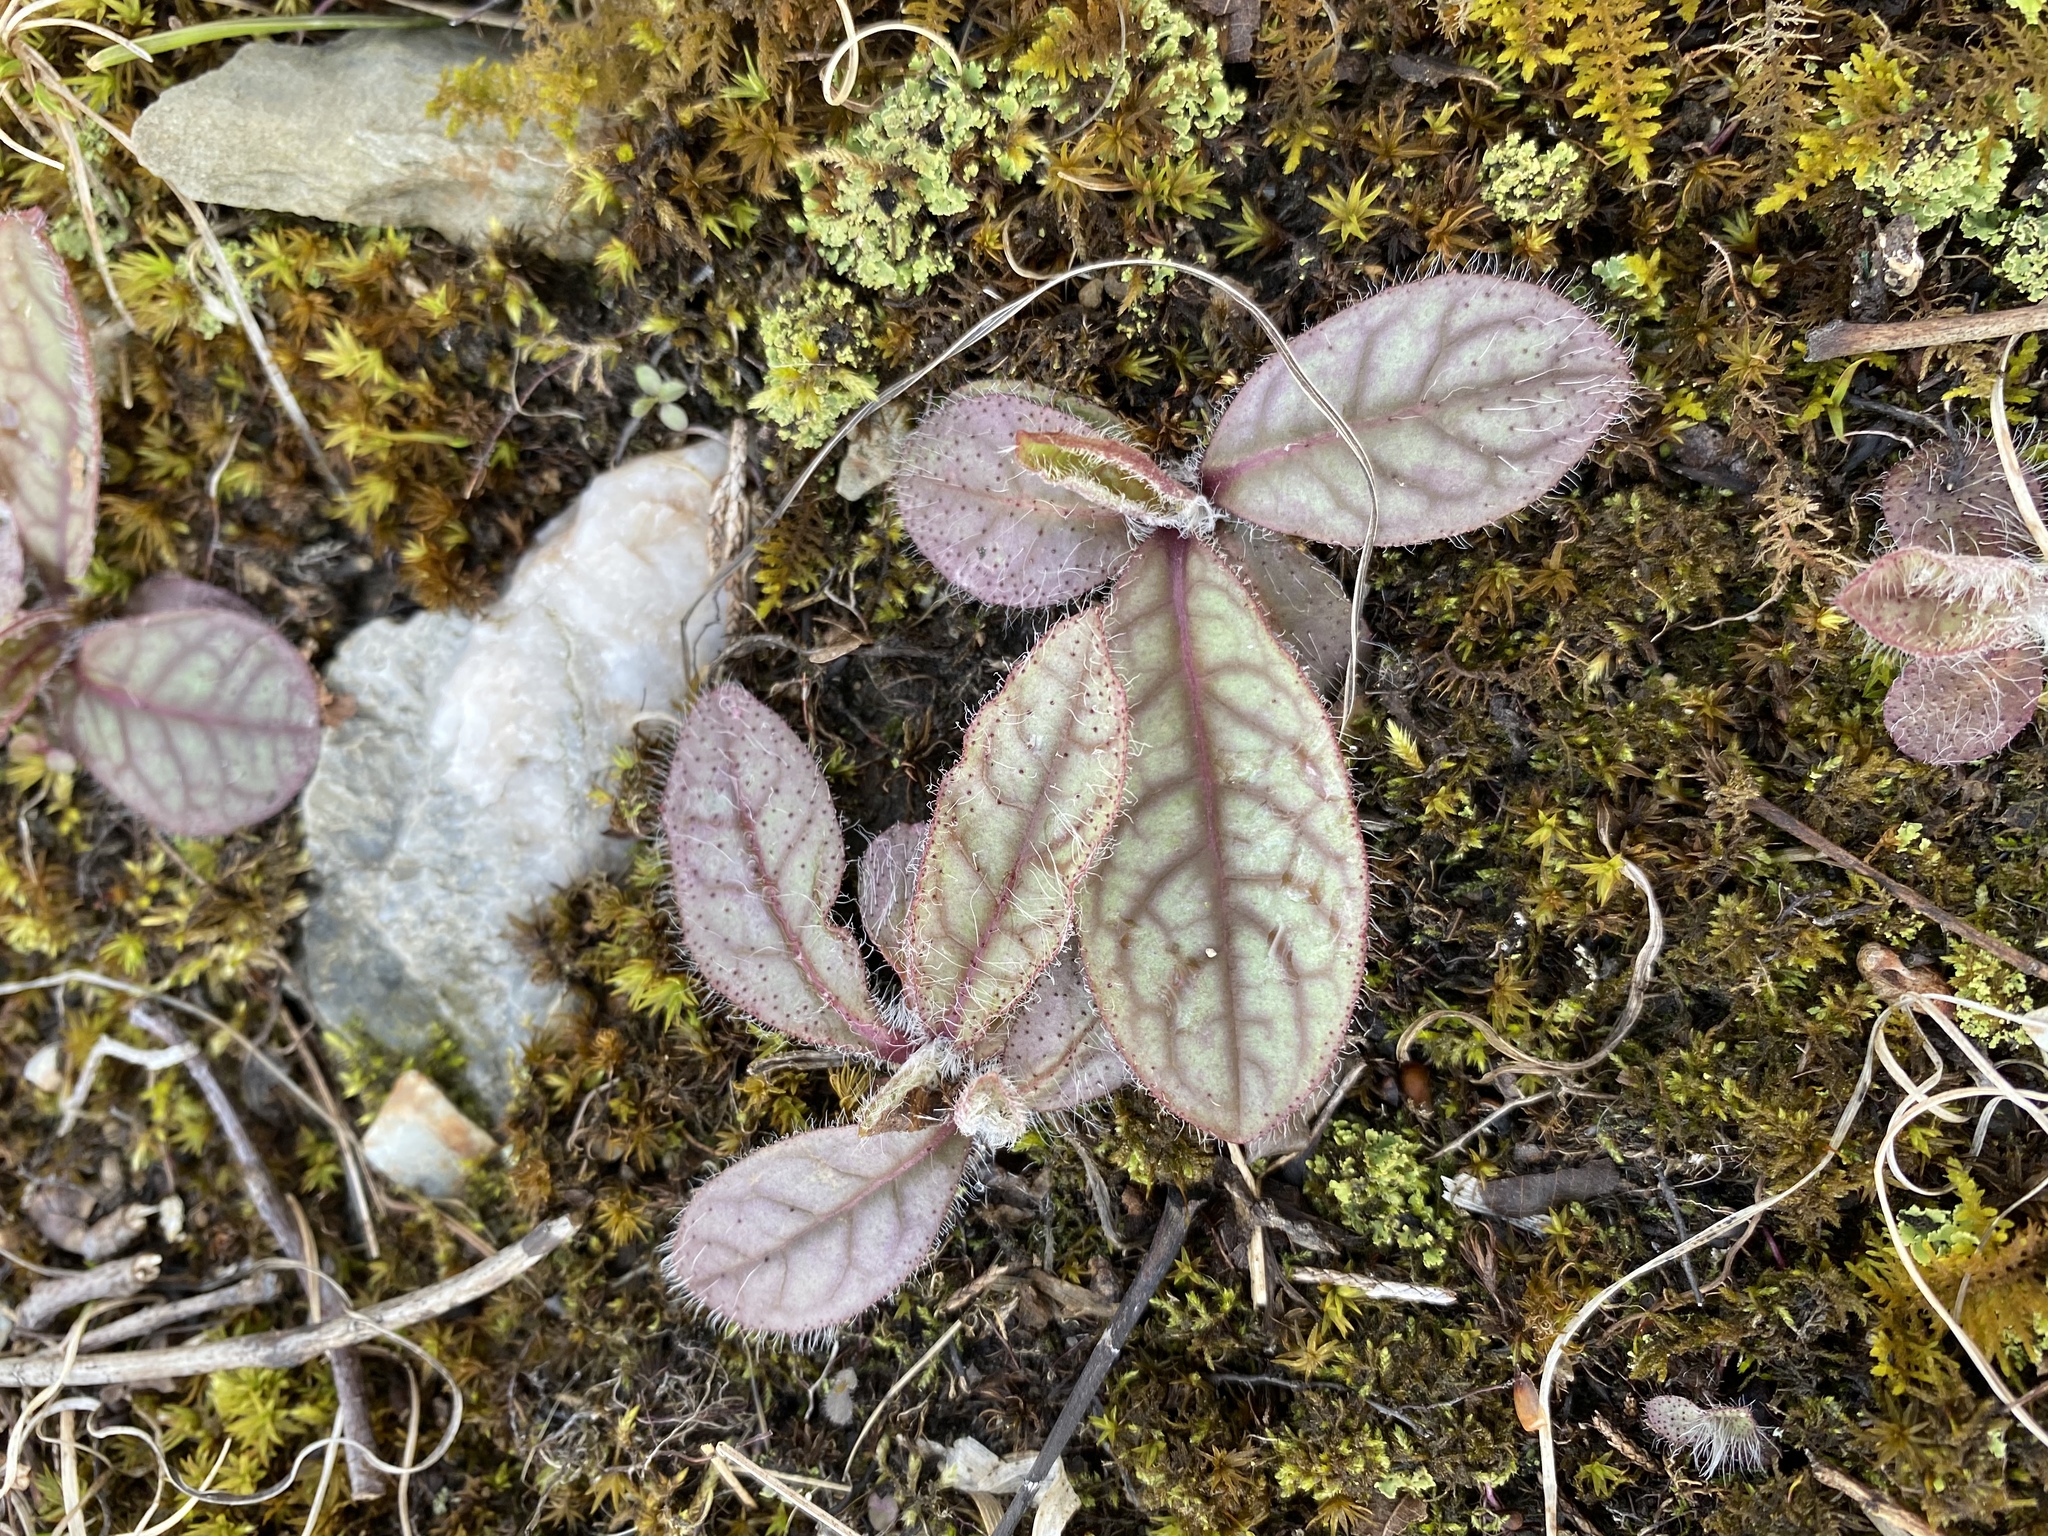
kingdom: Plantae
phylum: Tracheophyta
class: Magnoliopsida
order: Asterales
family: Asteraceae
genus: Hieracium
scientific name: Hieracium venosum
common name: Rattlesnake hawkweed
